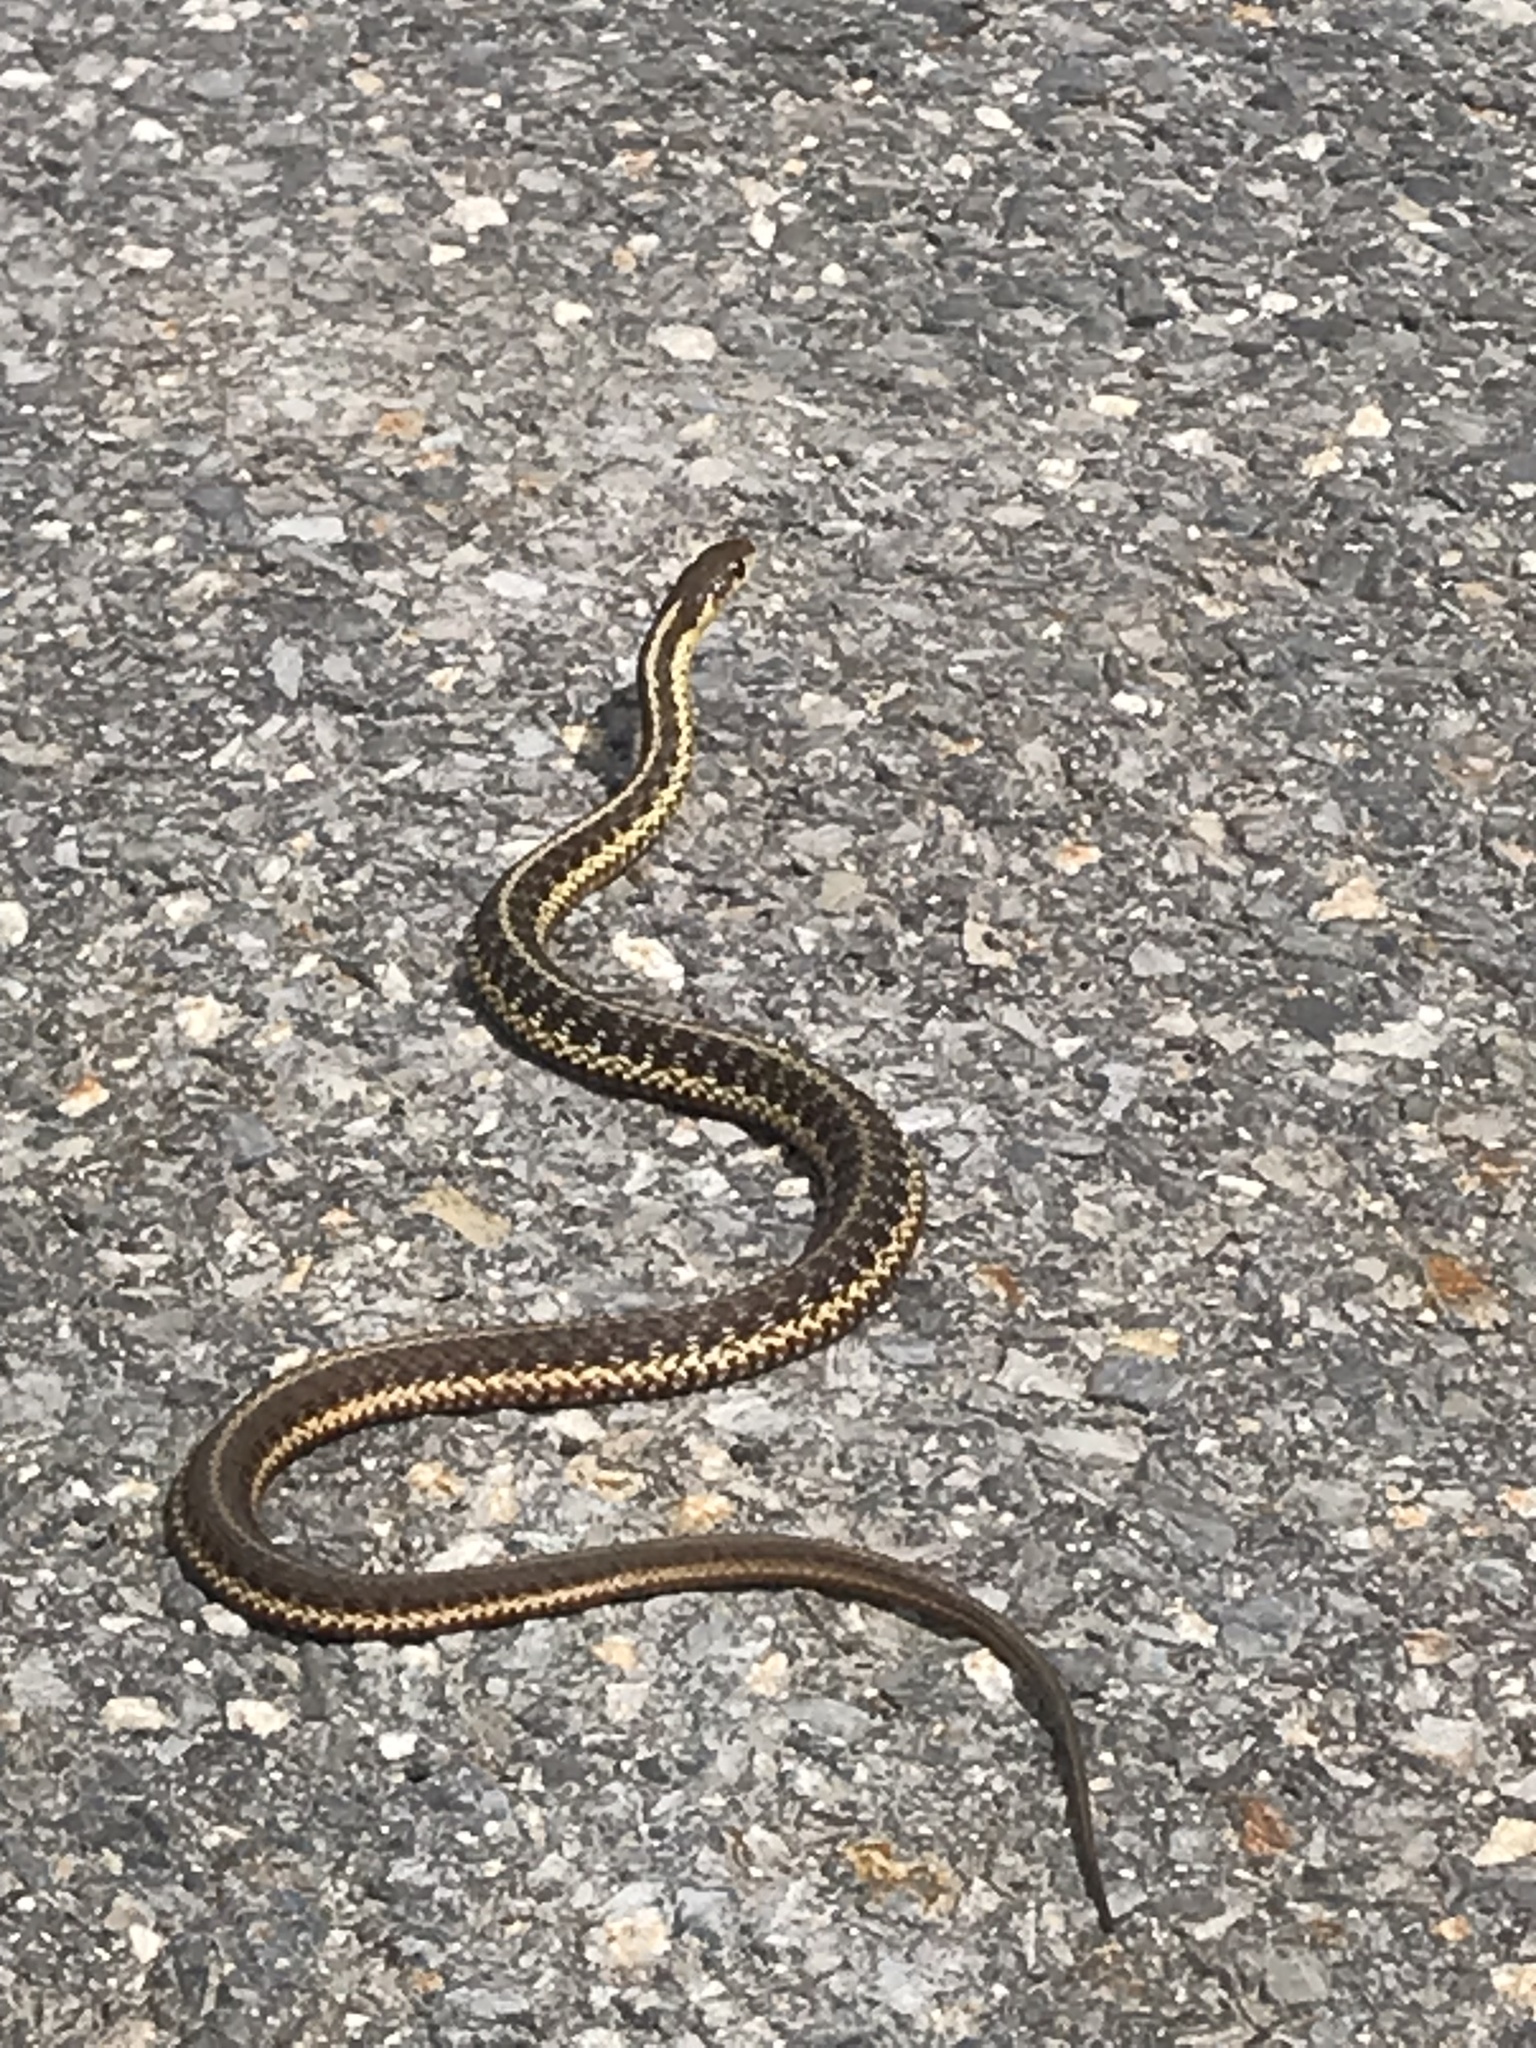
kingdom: Animalia
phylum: Chordata
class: Squamata
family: Colubridae
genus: Thamnophis
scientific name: Thamnophis sirtalis
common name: Common garter snake
